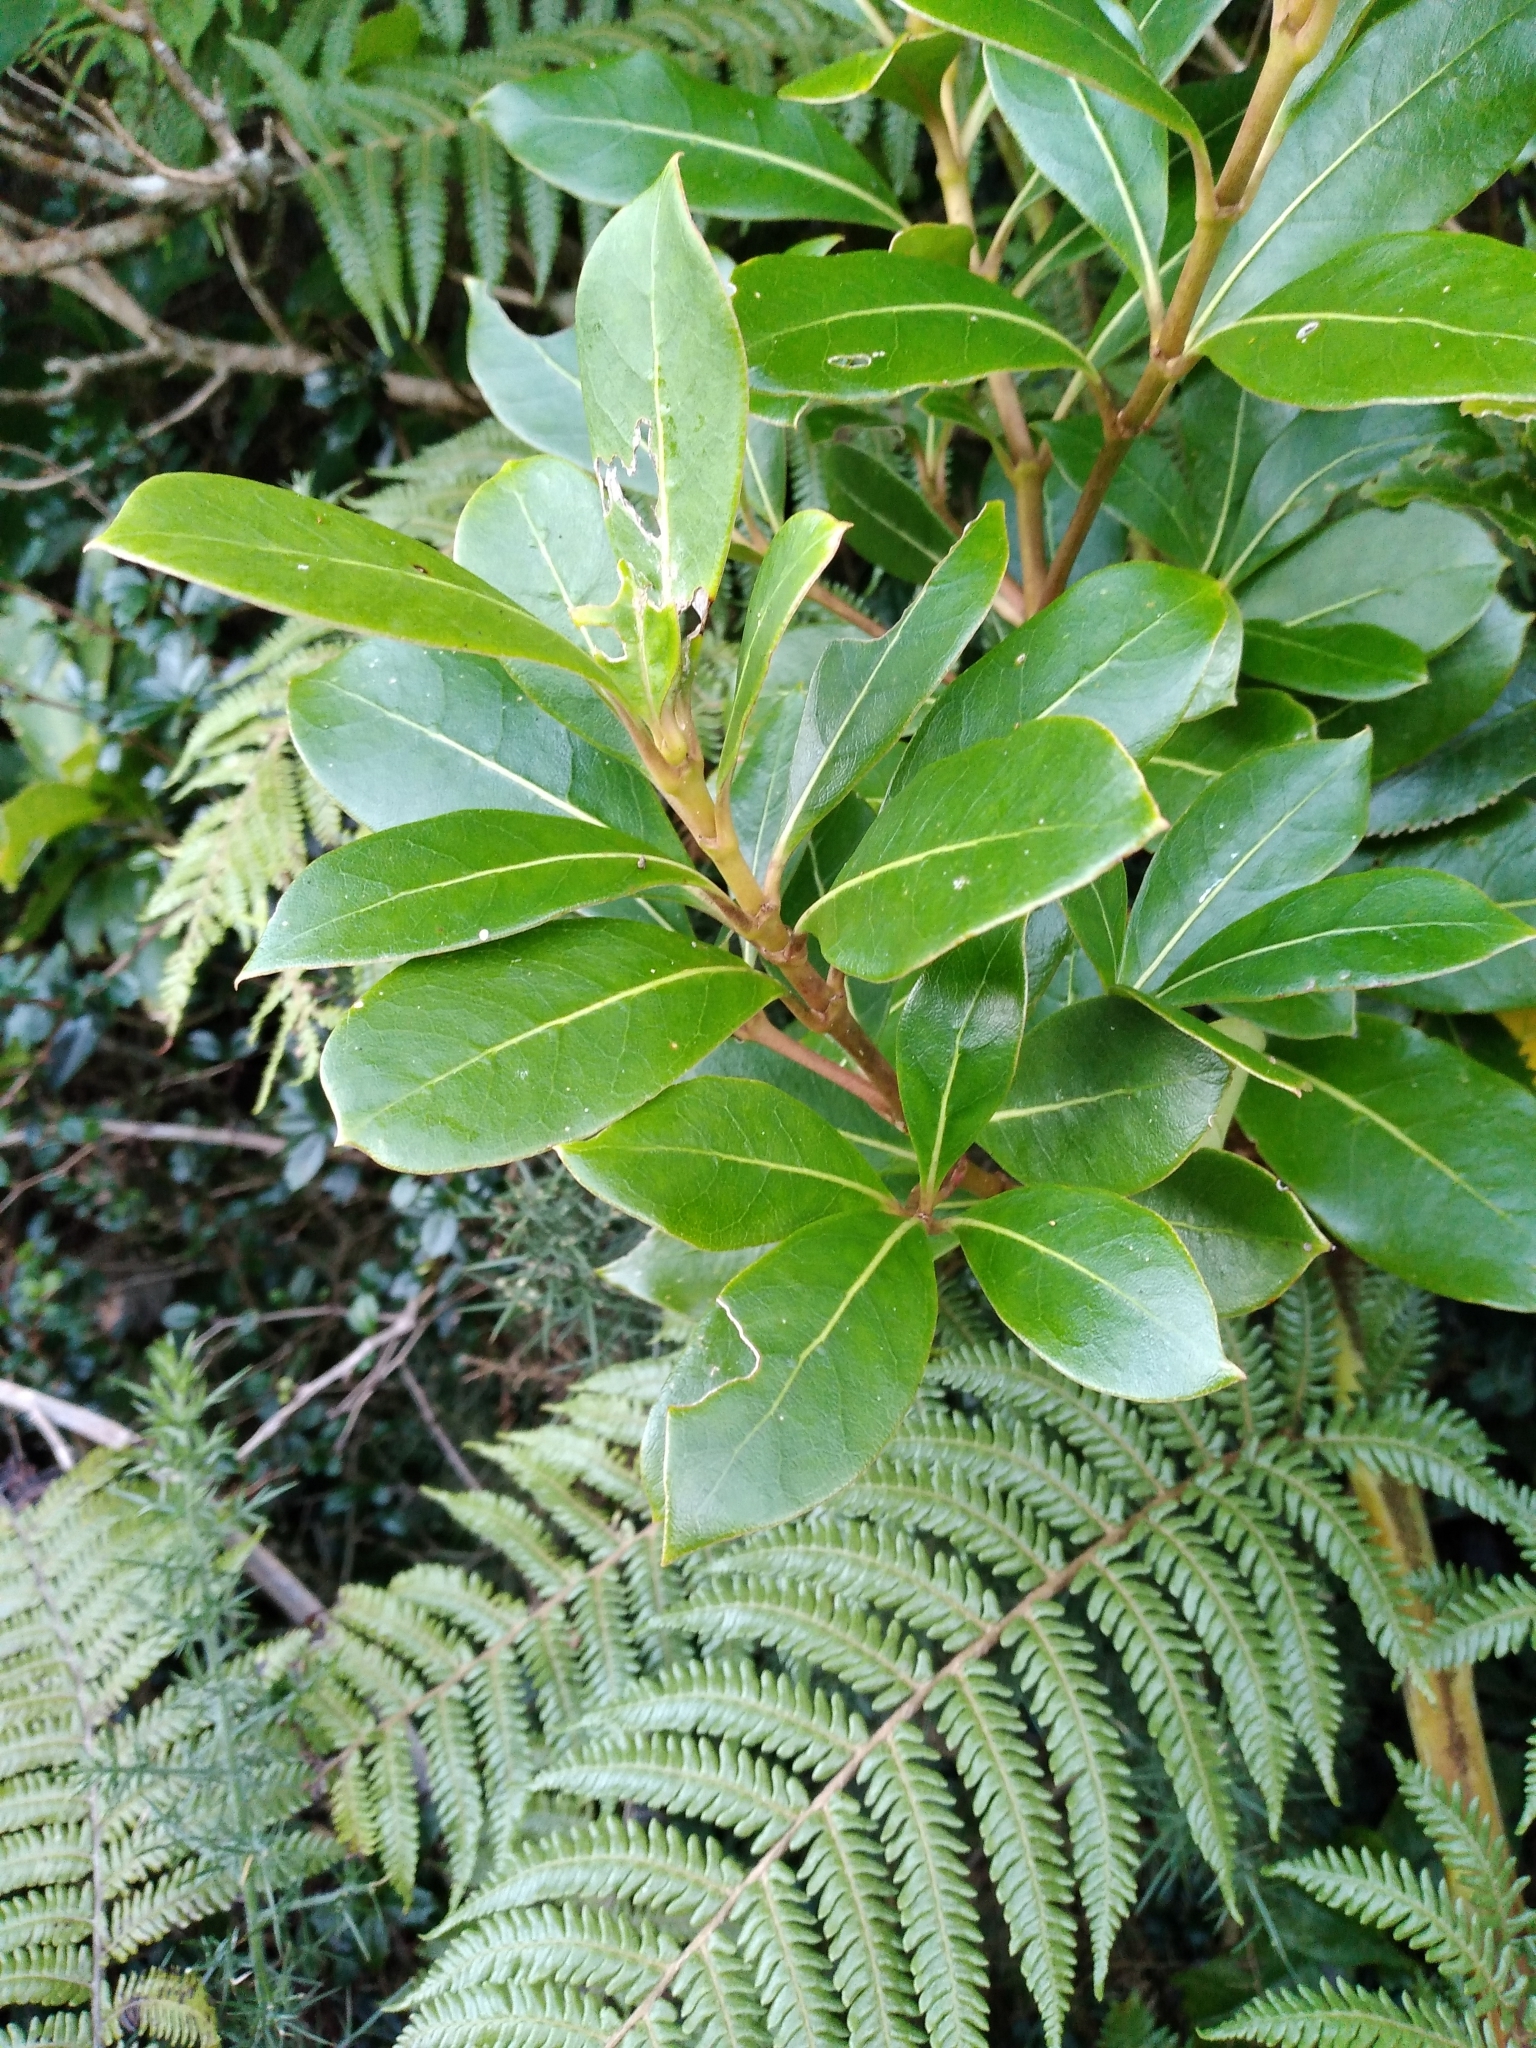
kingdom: Plantae
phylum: Tracheophyta
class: Magnoliopsida
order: Gentianales
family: Rubiaceae
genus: Coprosma
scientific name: Coprosma lucida
